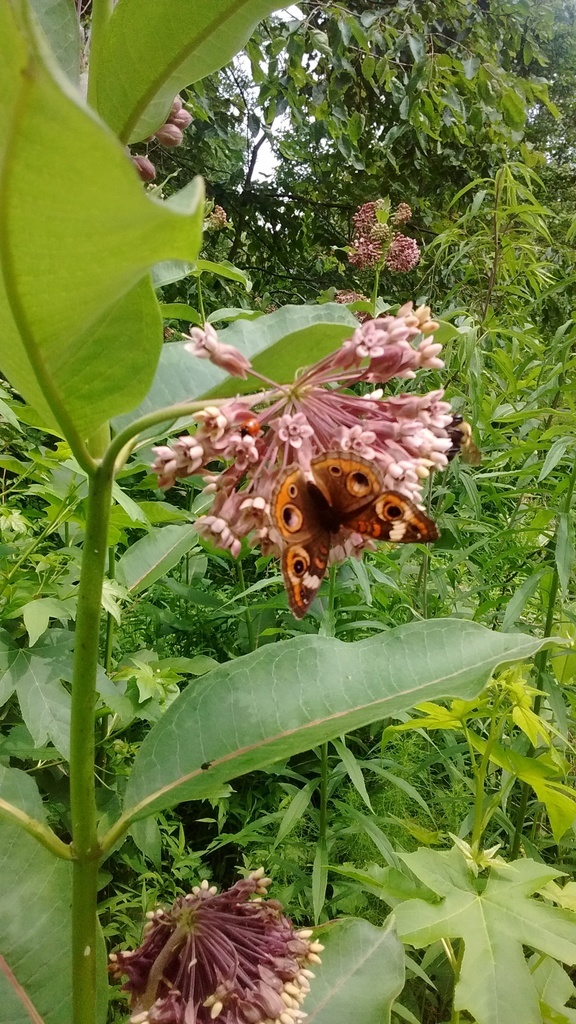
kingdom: Animalia
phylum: Arthropoda
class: Insecta
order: Lepidoptera
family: Nymphalidae
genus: Junonia
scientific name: Junonia coenia
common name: Common buckeye
